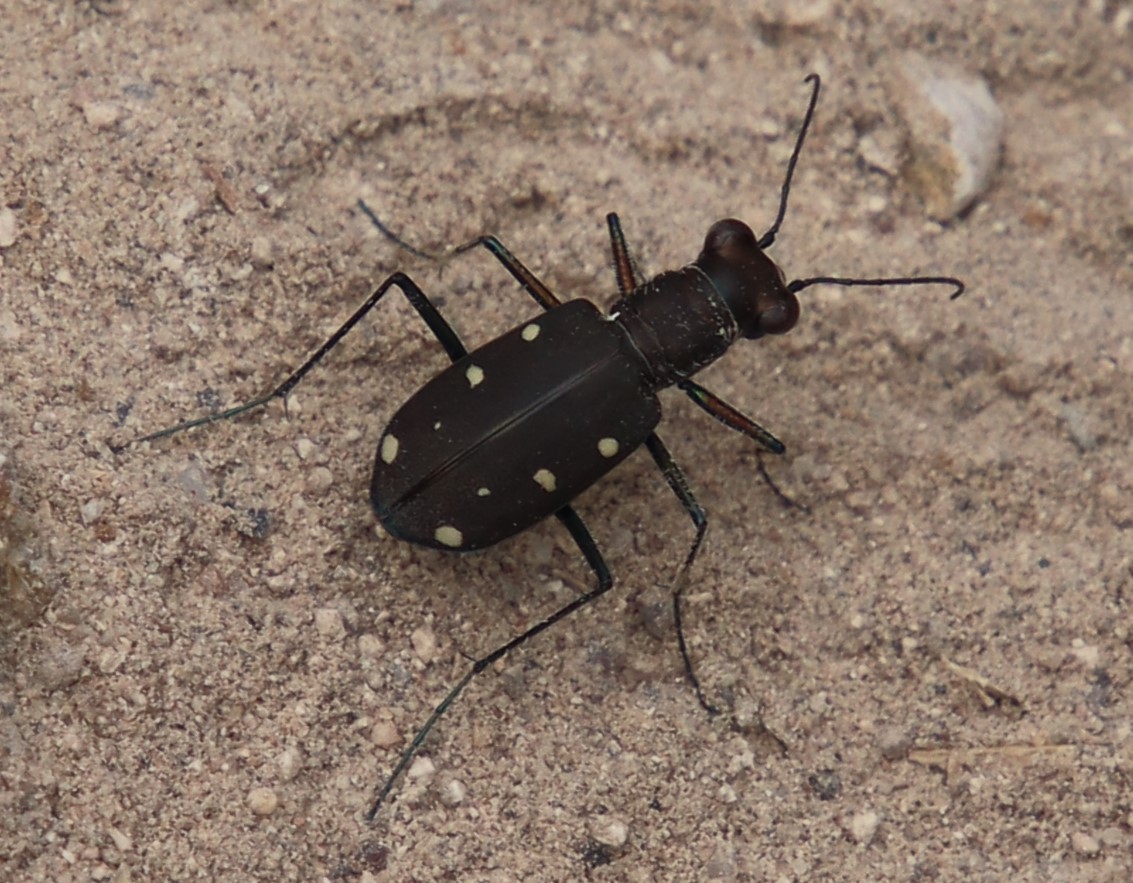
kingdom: Animalia
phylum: Arthropoda
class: Insecta
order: Coleoptera
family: Carabidae
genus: Cicindela
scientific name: Cicindela ocellata
